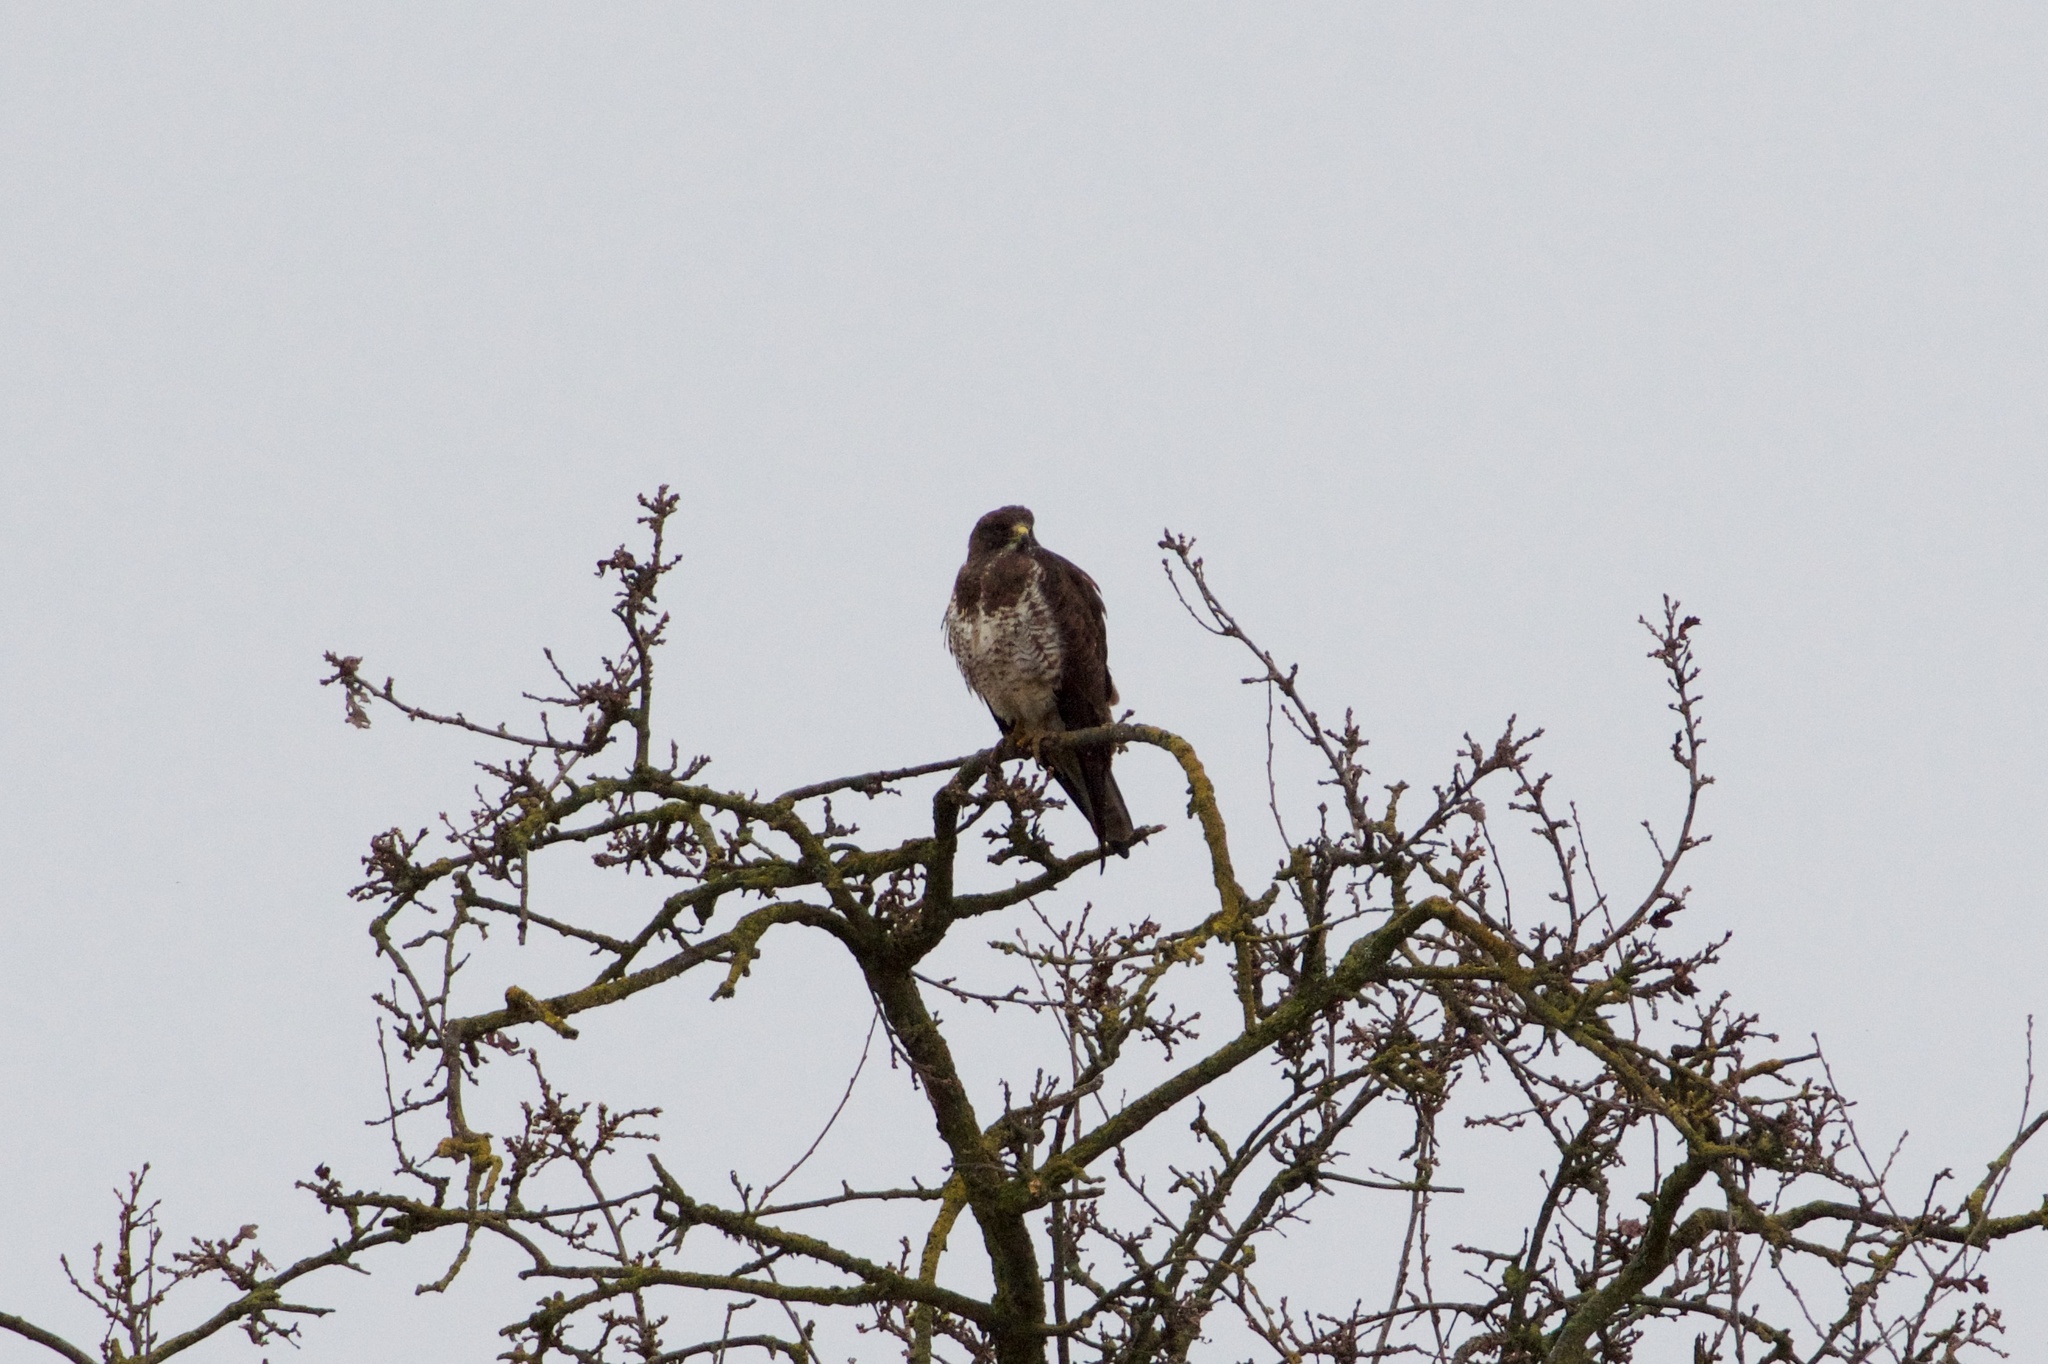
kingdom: Animalia
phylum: Chordata
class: Aves
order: Accipitriformes
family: Accipitridae
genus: Buteo
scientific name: Buteo swainsoni
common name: Swainson's hawk
